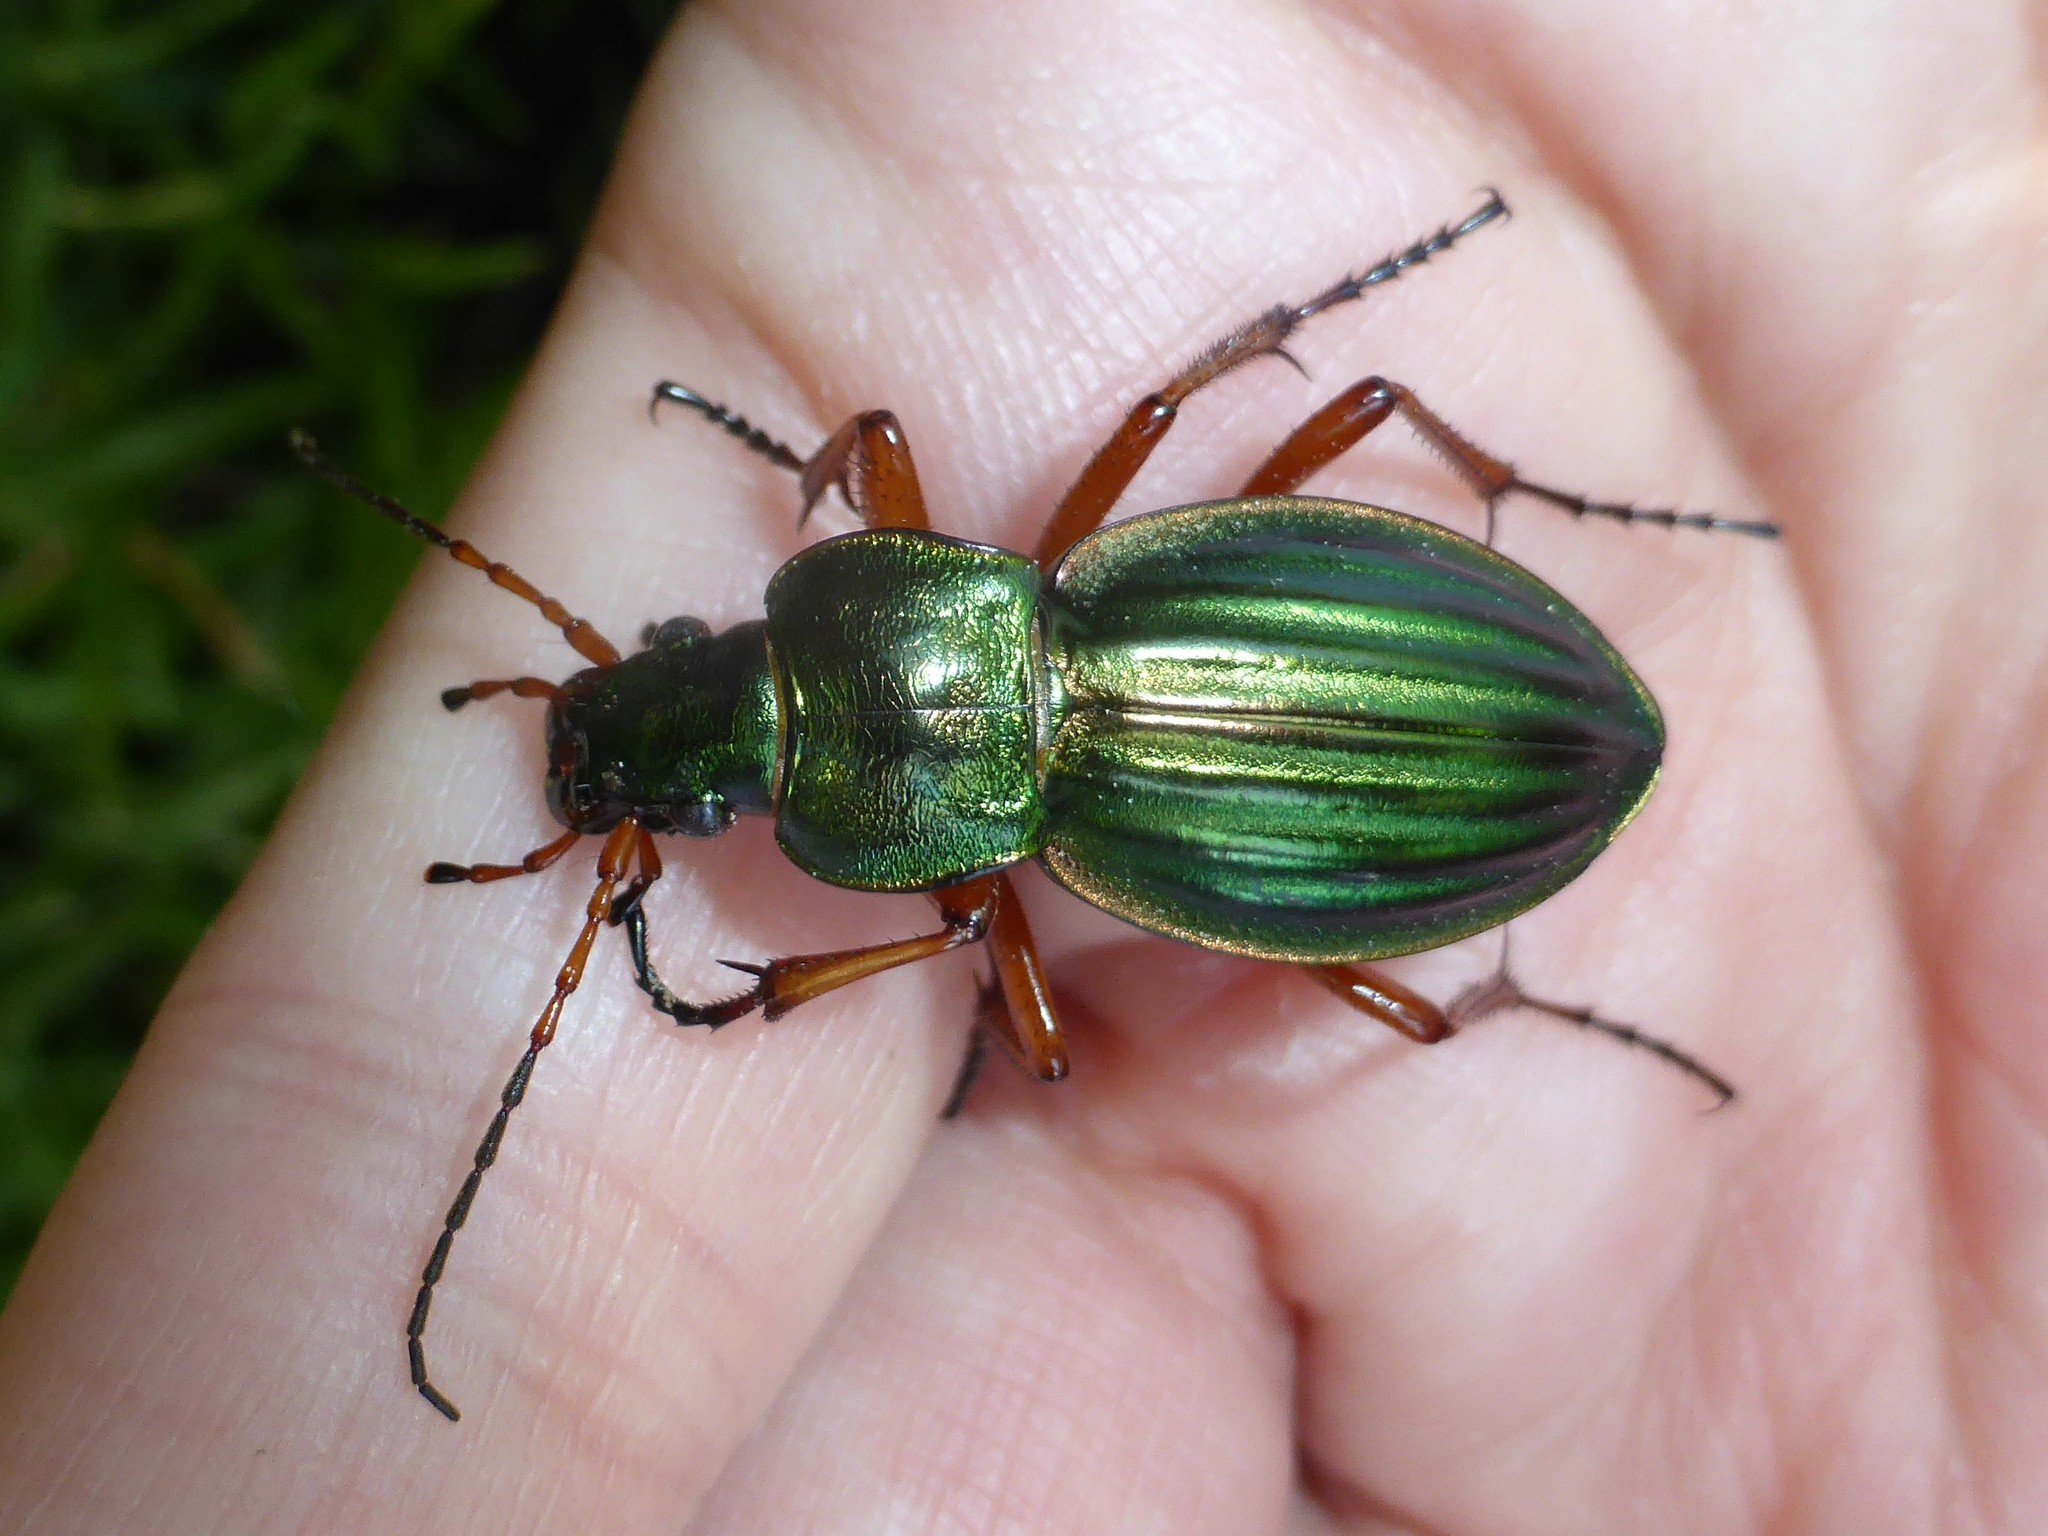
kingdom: Animalia
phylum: Arthropoda
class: Insecta
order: Coleoptera
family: Carabidae
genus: Carabus
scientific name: Carabus auratus
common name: Golden ground beetle
